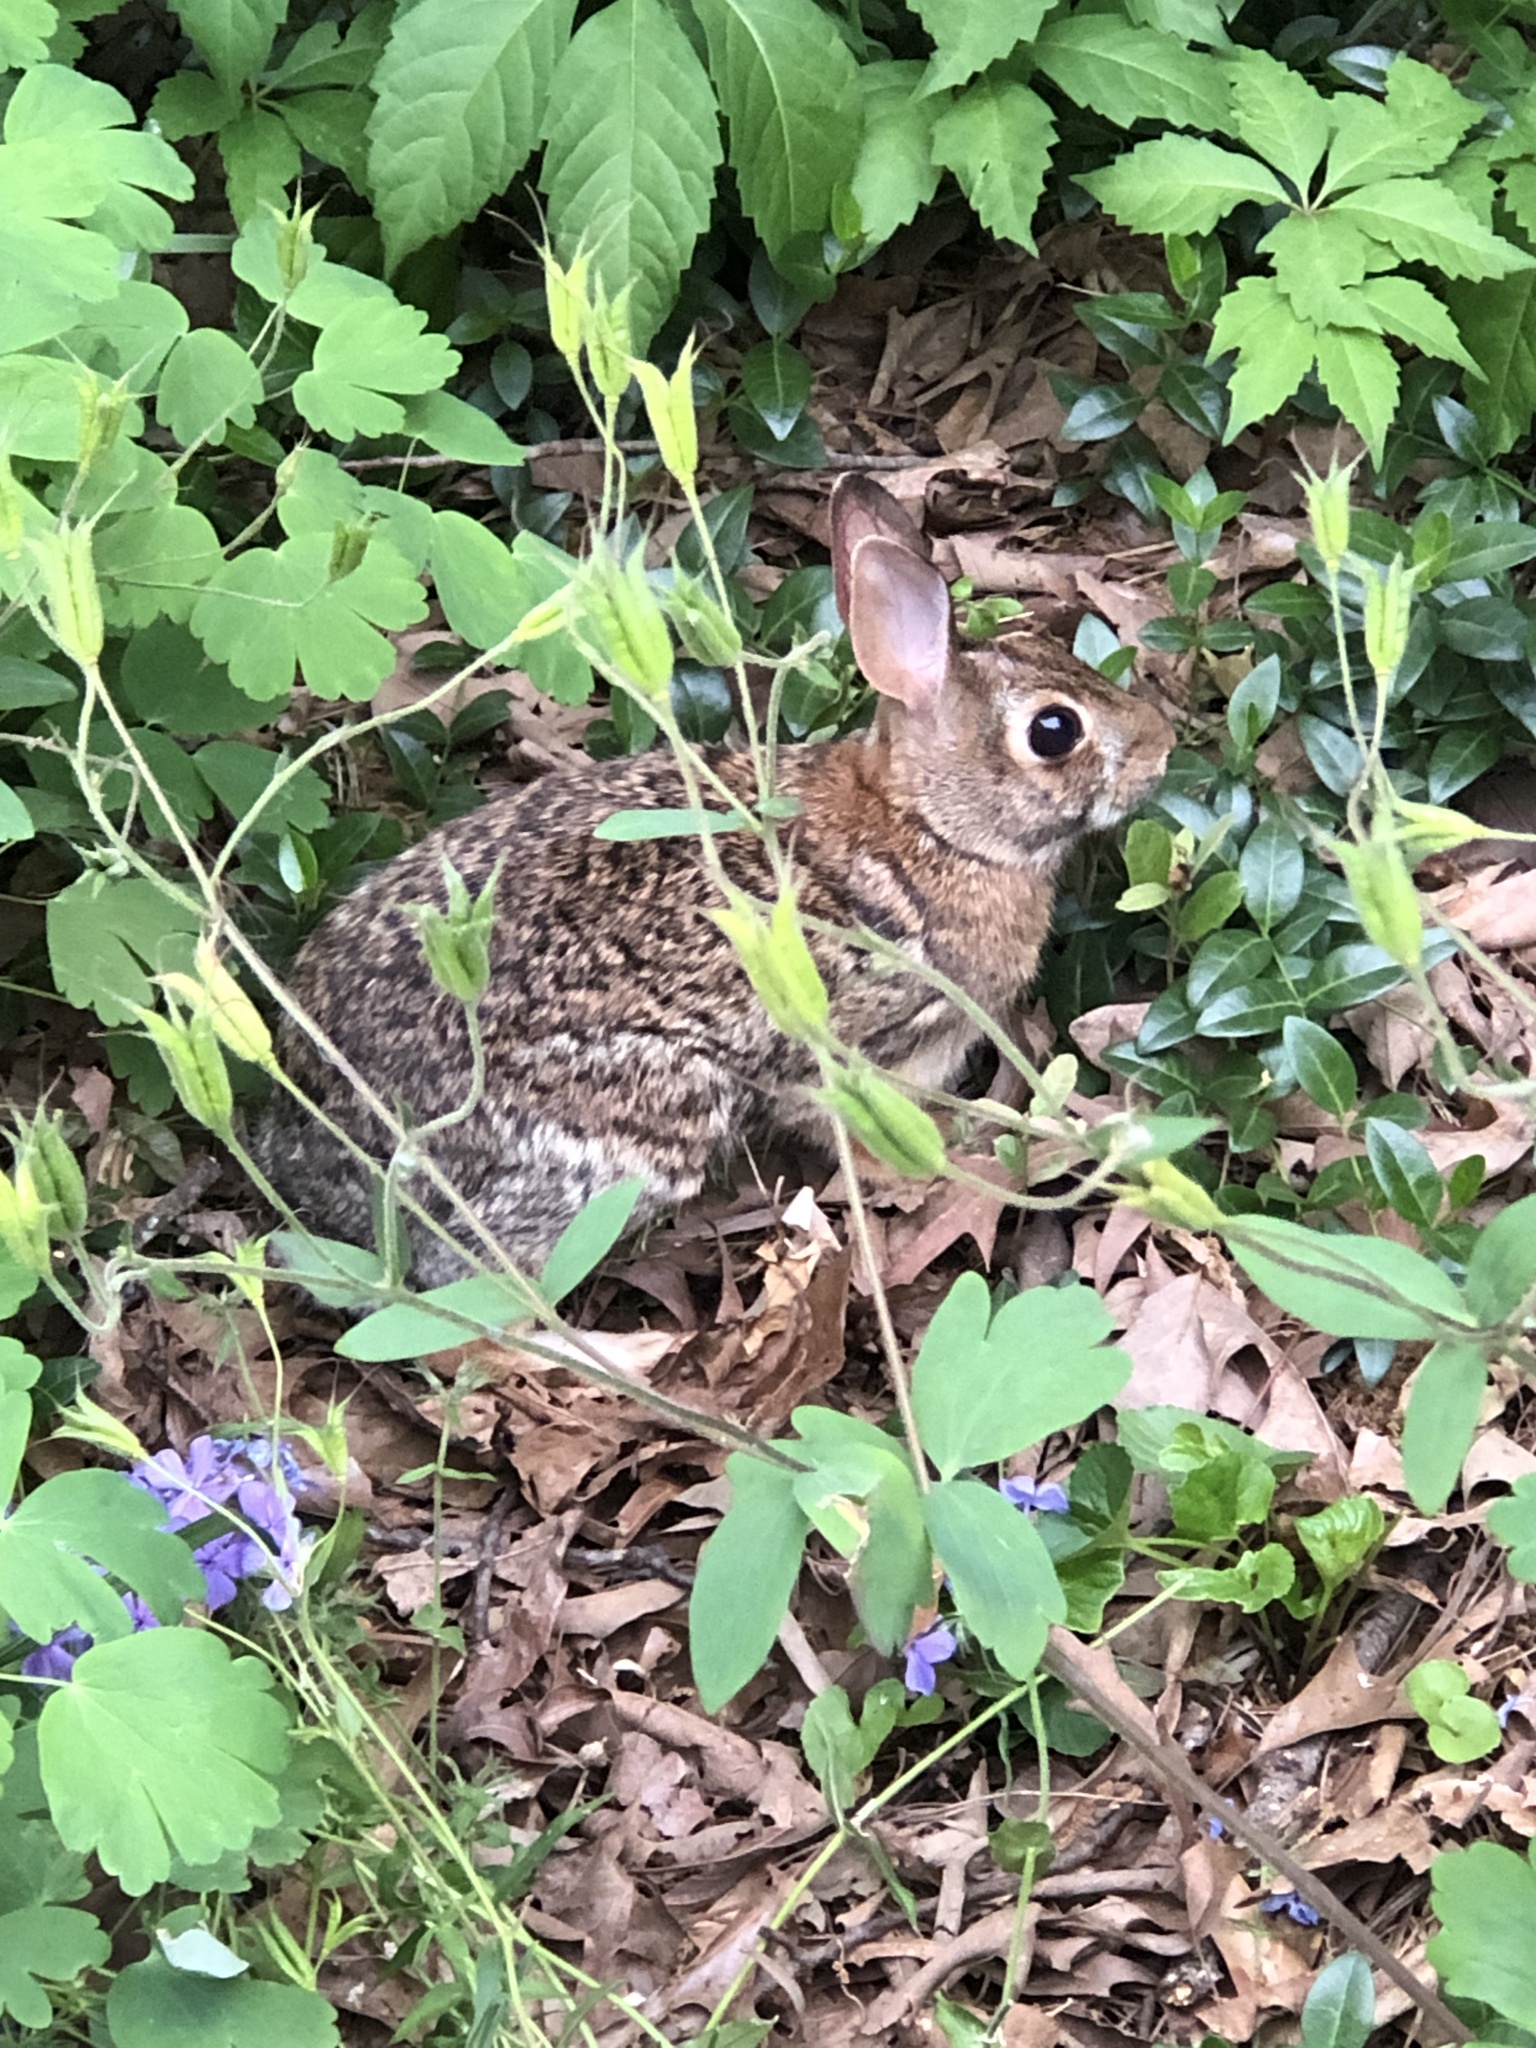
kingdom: Animalia
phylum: Chordata
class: Mammalia
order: Lagomorpha
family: Leporidae
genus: Sylvilagus
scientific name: Sylvilagus floridanus
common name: Eastern cottontail
